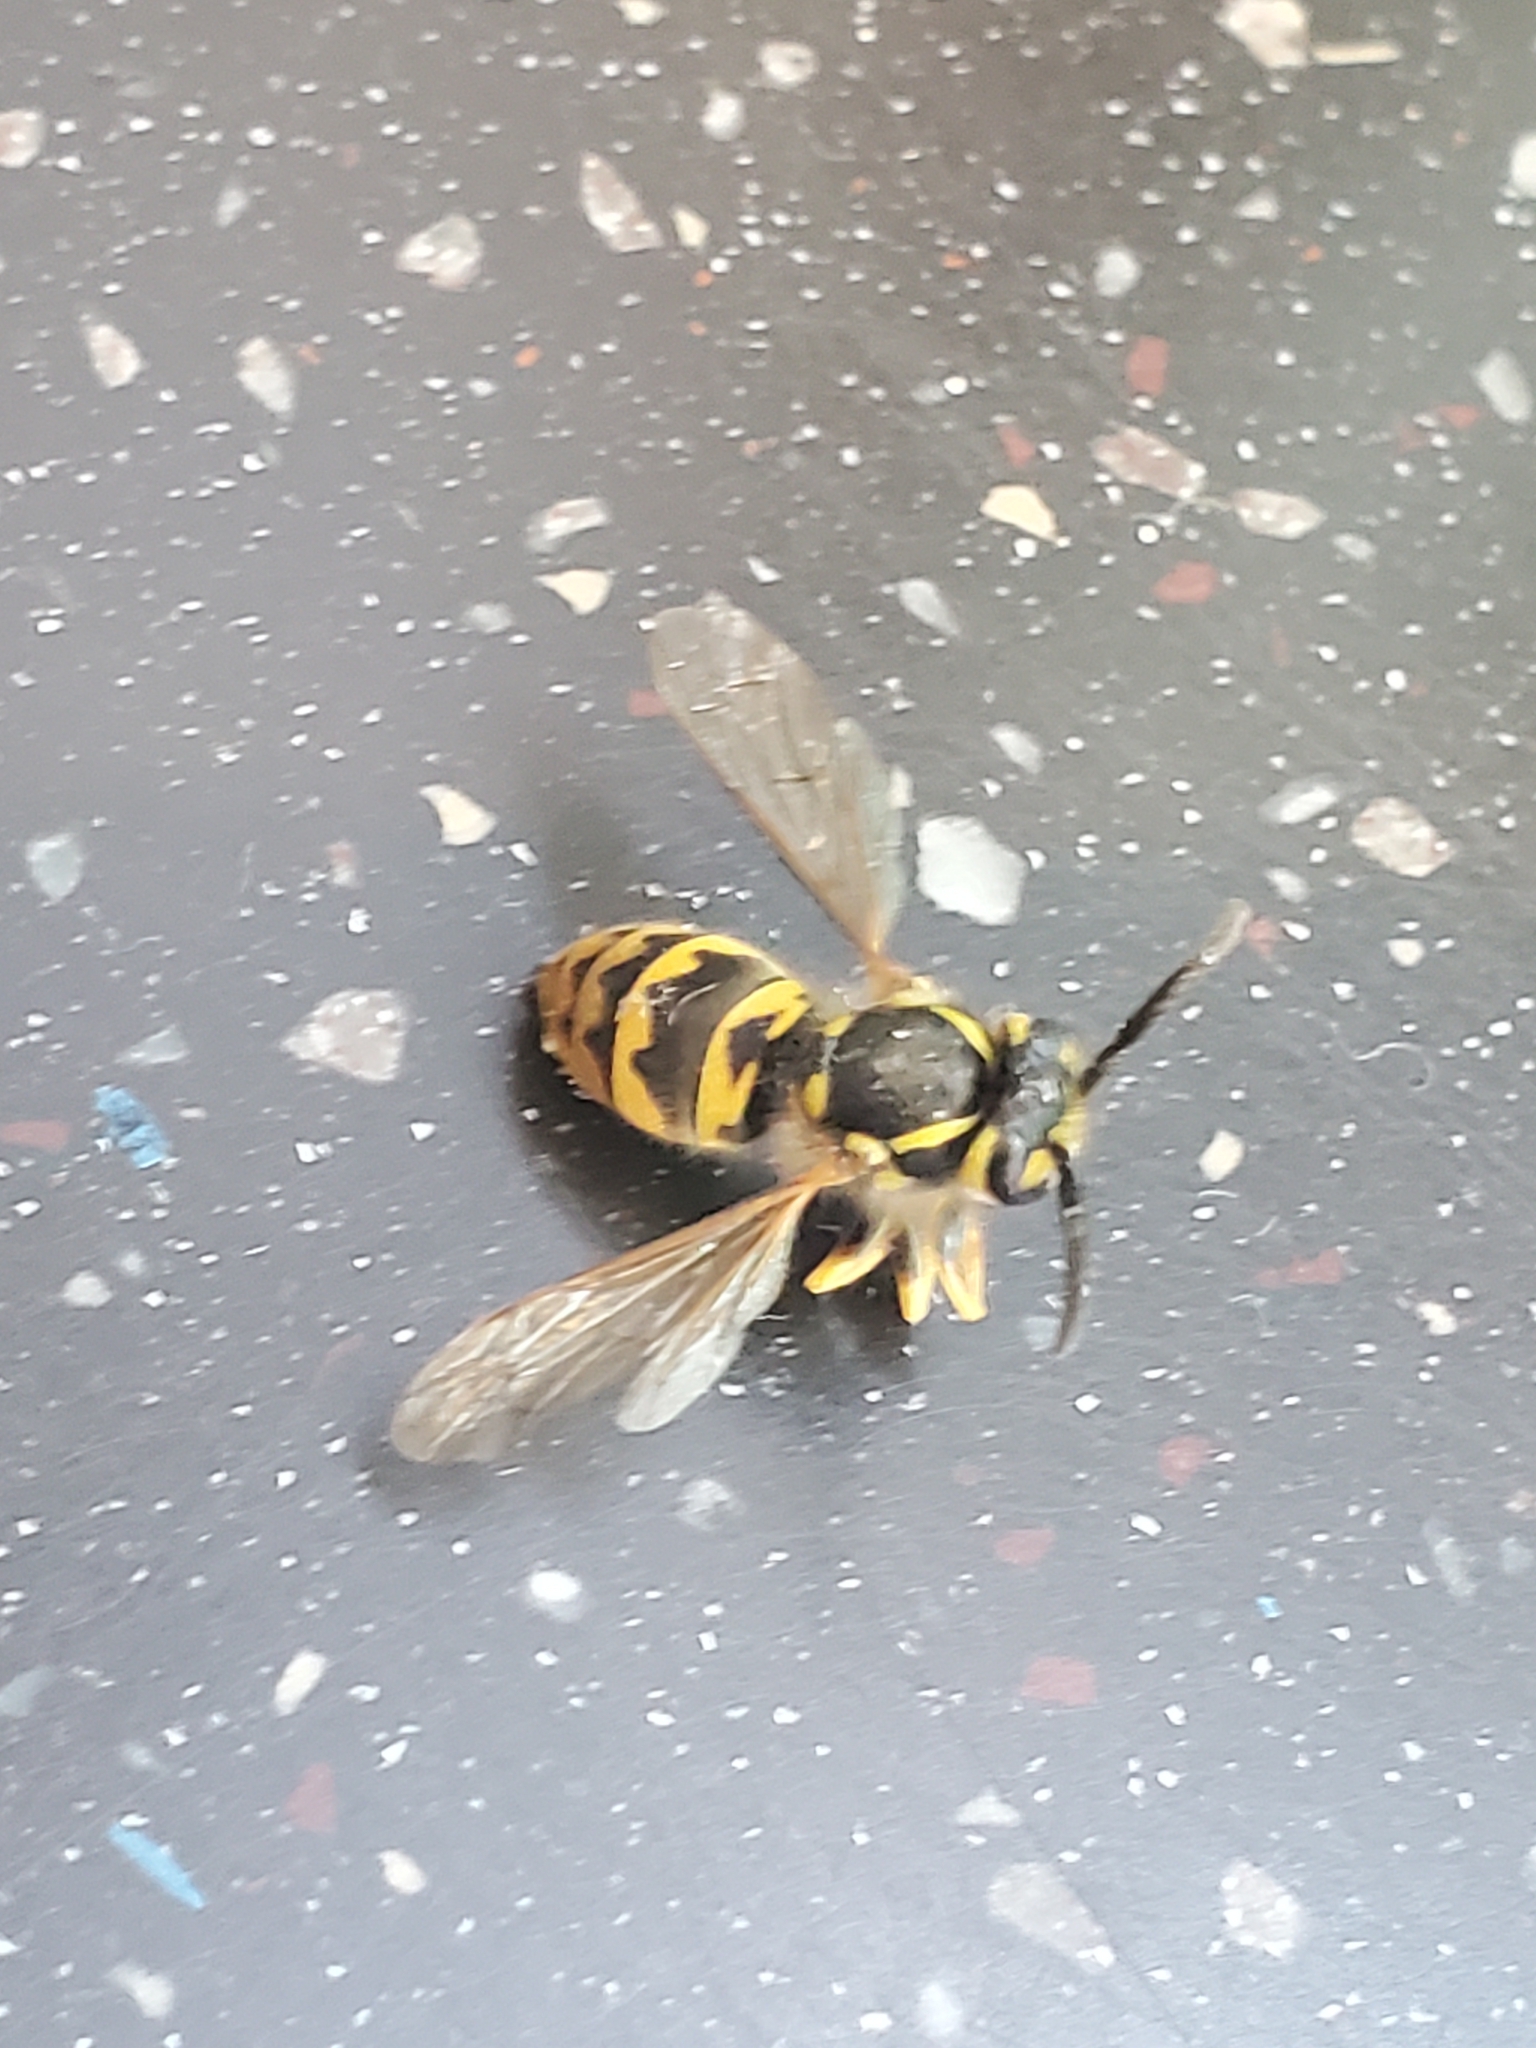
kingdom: Animalia
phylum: Arthropoda
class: Insecta
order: Hymenoptera
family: Vespidae
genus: Vespula
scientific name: Vespula germanica
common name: German wasp
